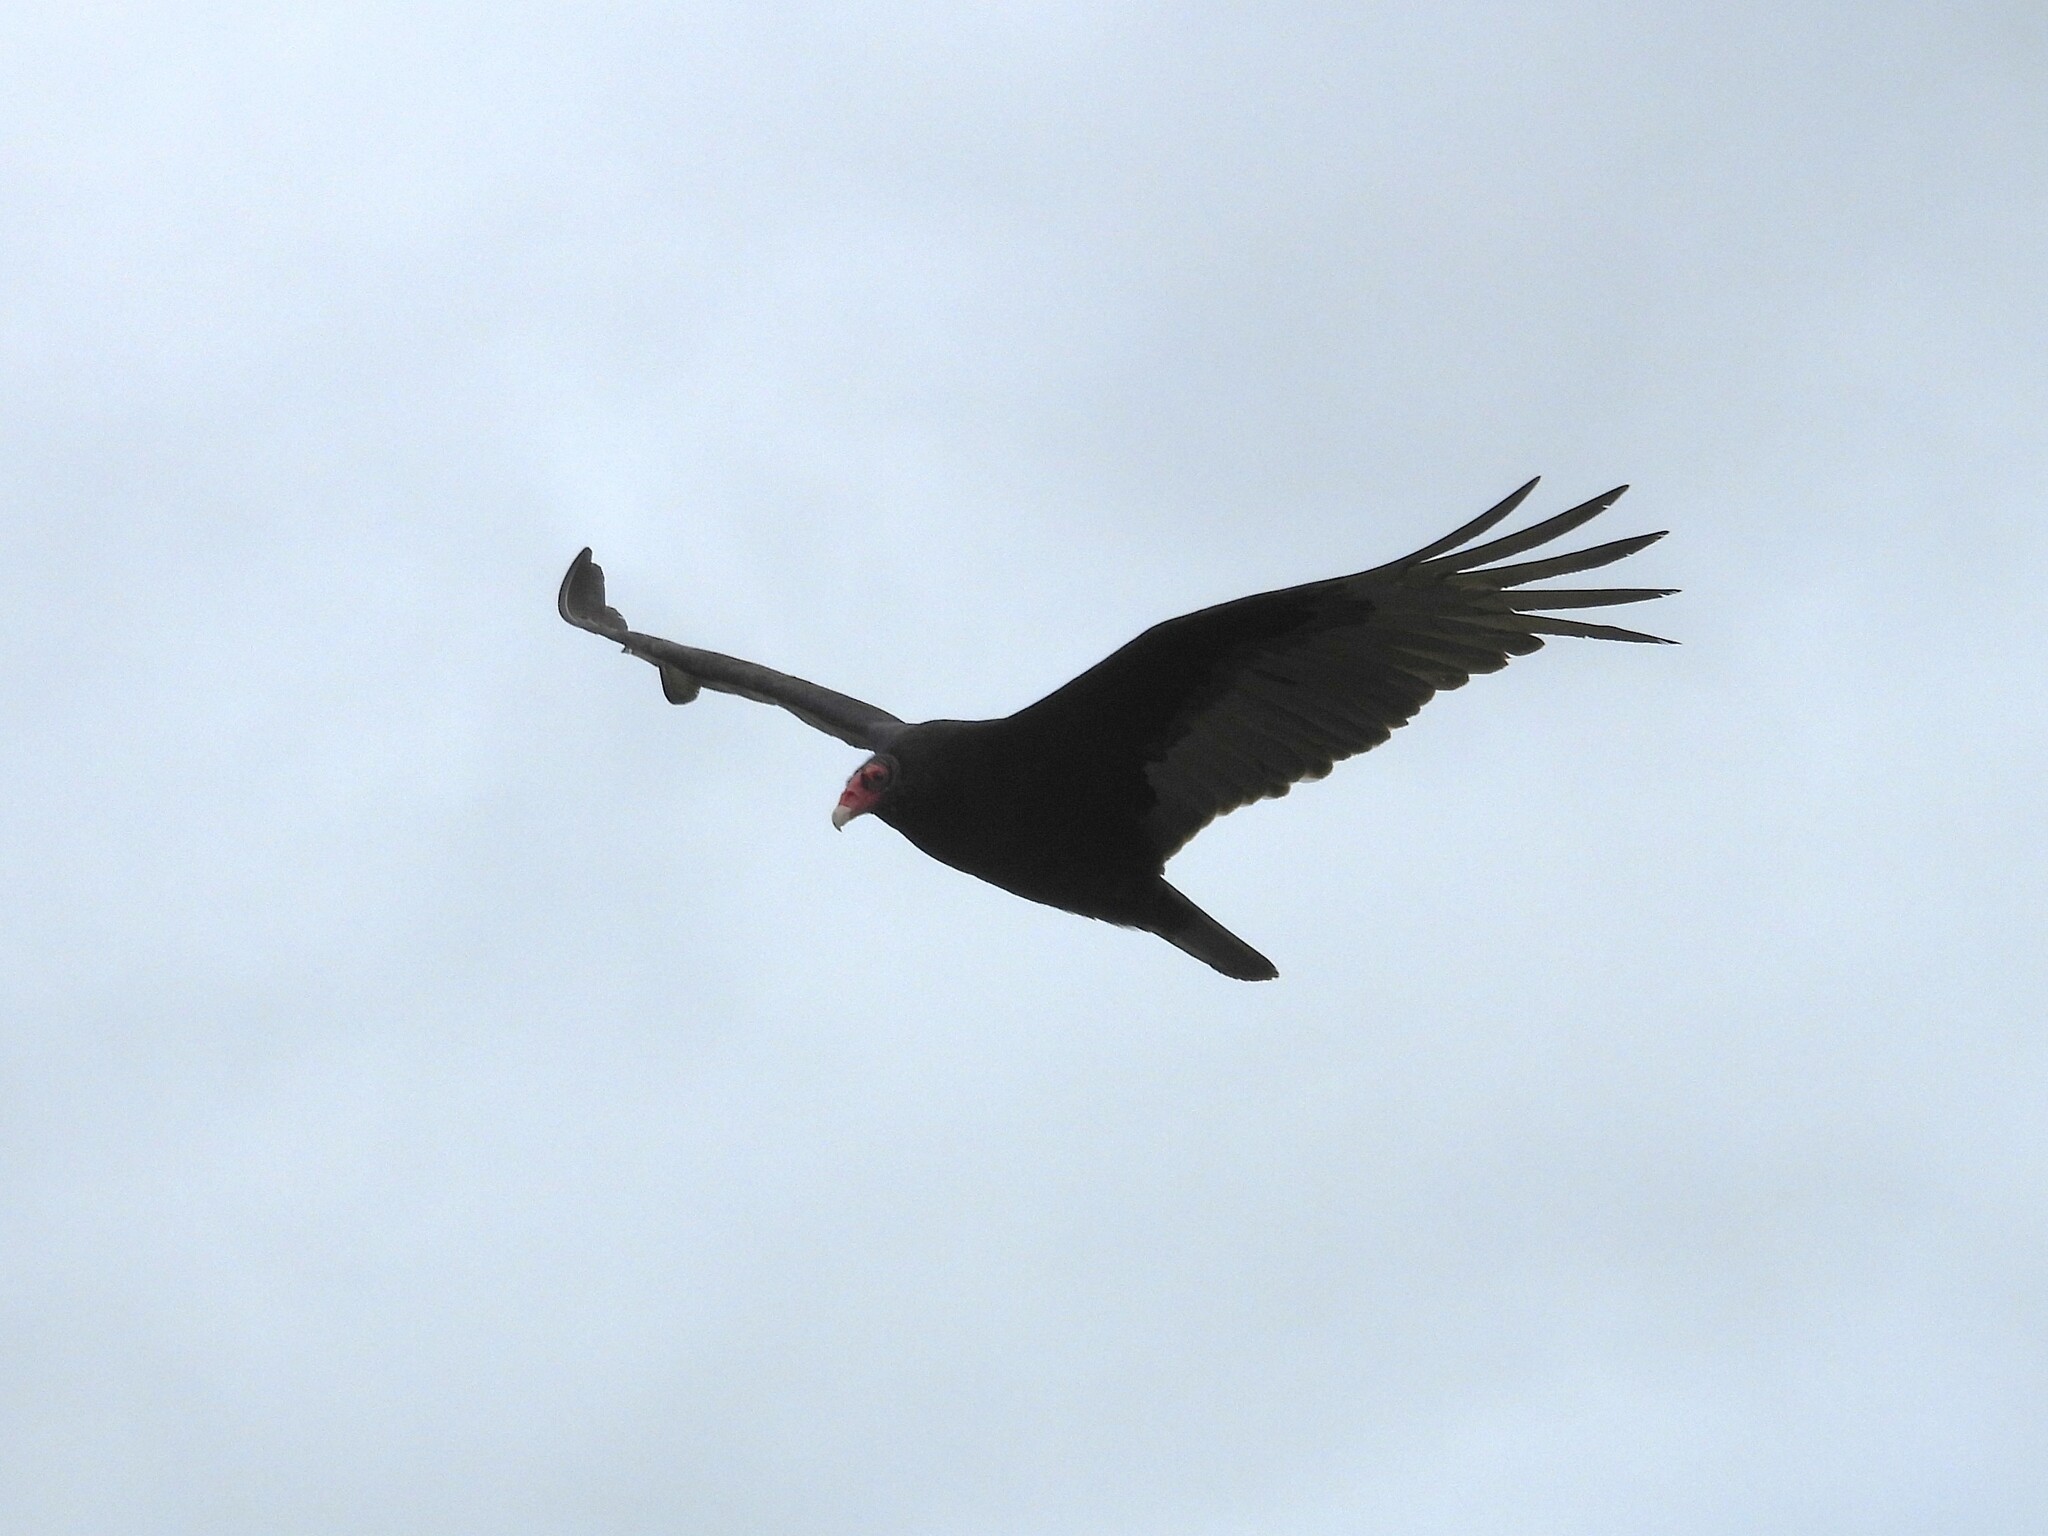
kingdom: Animalia
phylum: Chordata
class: Aves
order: Accipitriformes
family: Cathartidae
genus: Cathartes
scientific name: Cathartes aura
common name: Turkey vulture
